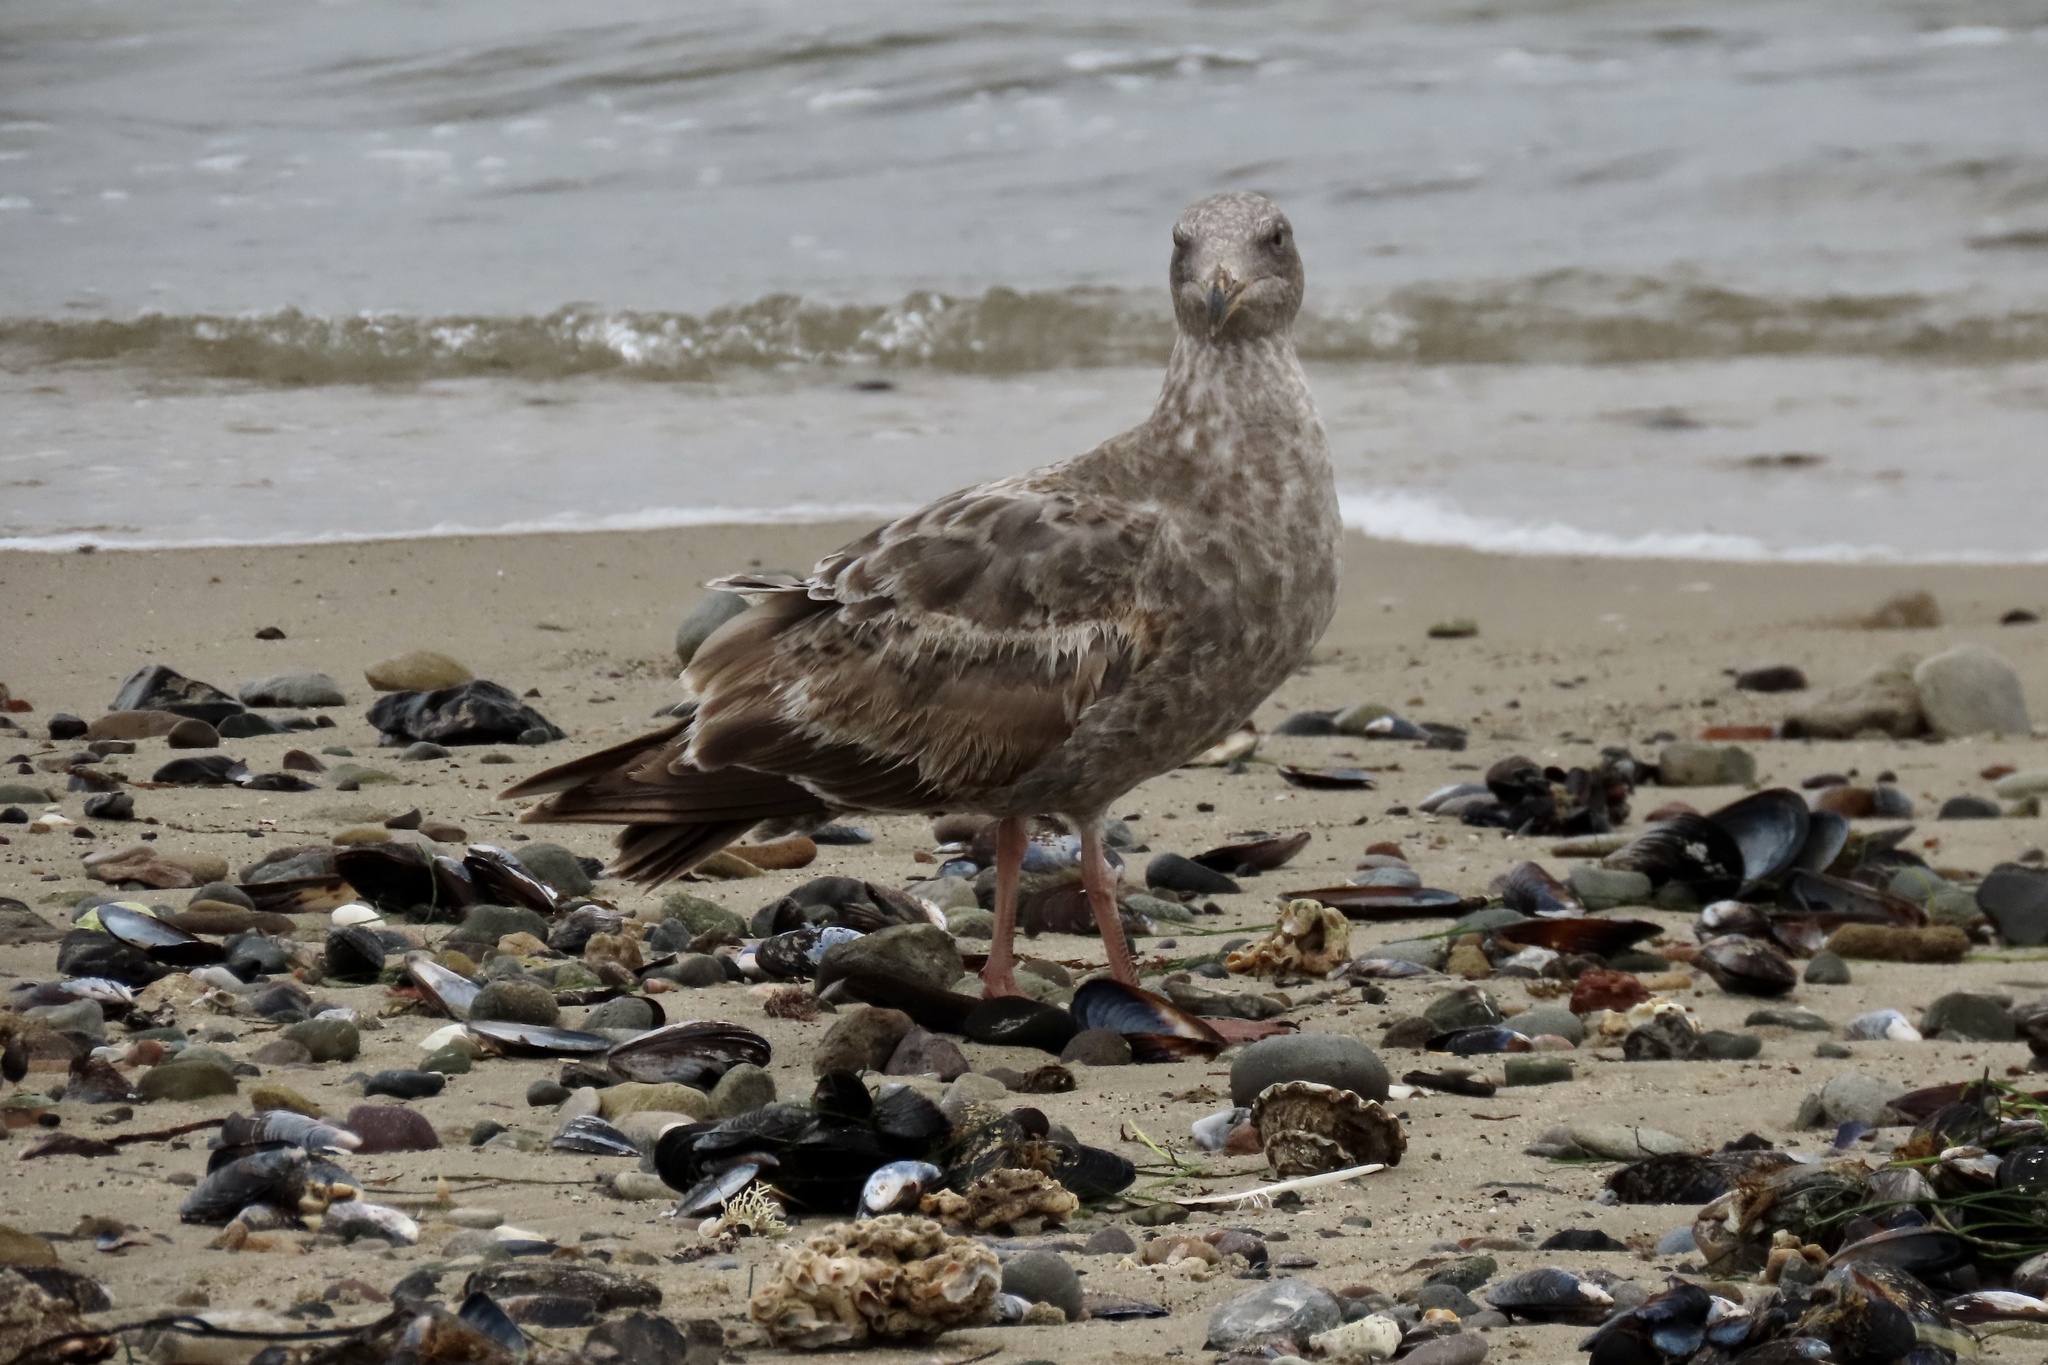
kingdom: Animalia
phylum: Chordata
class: Aves
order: Charadriiformes
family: Laridae
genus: Larus
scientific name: Larus occidentalis
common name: Western gull
